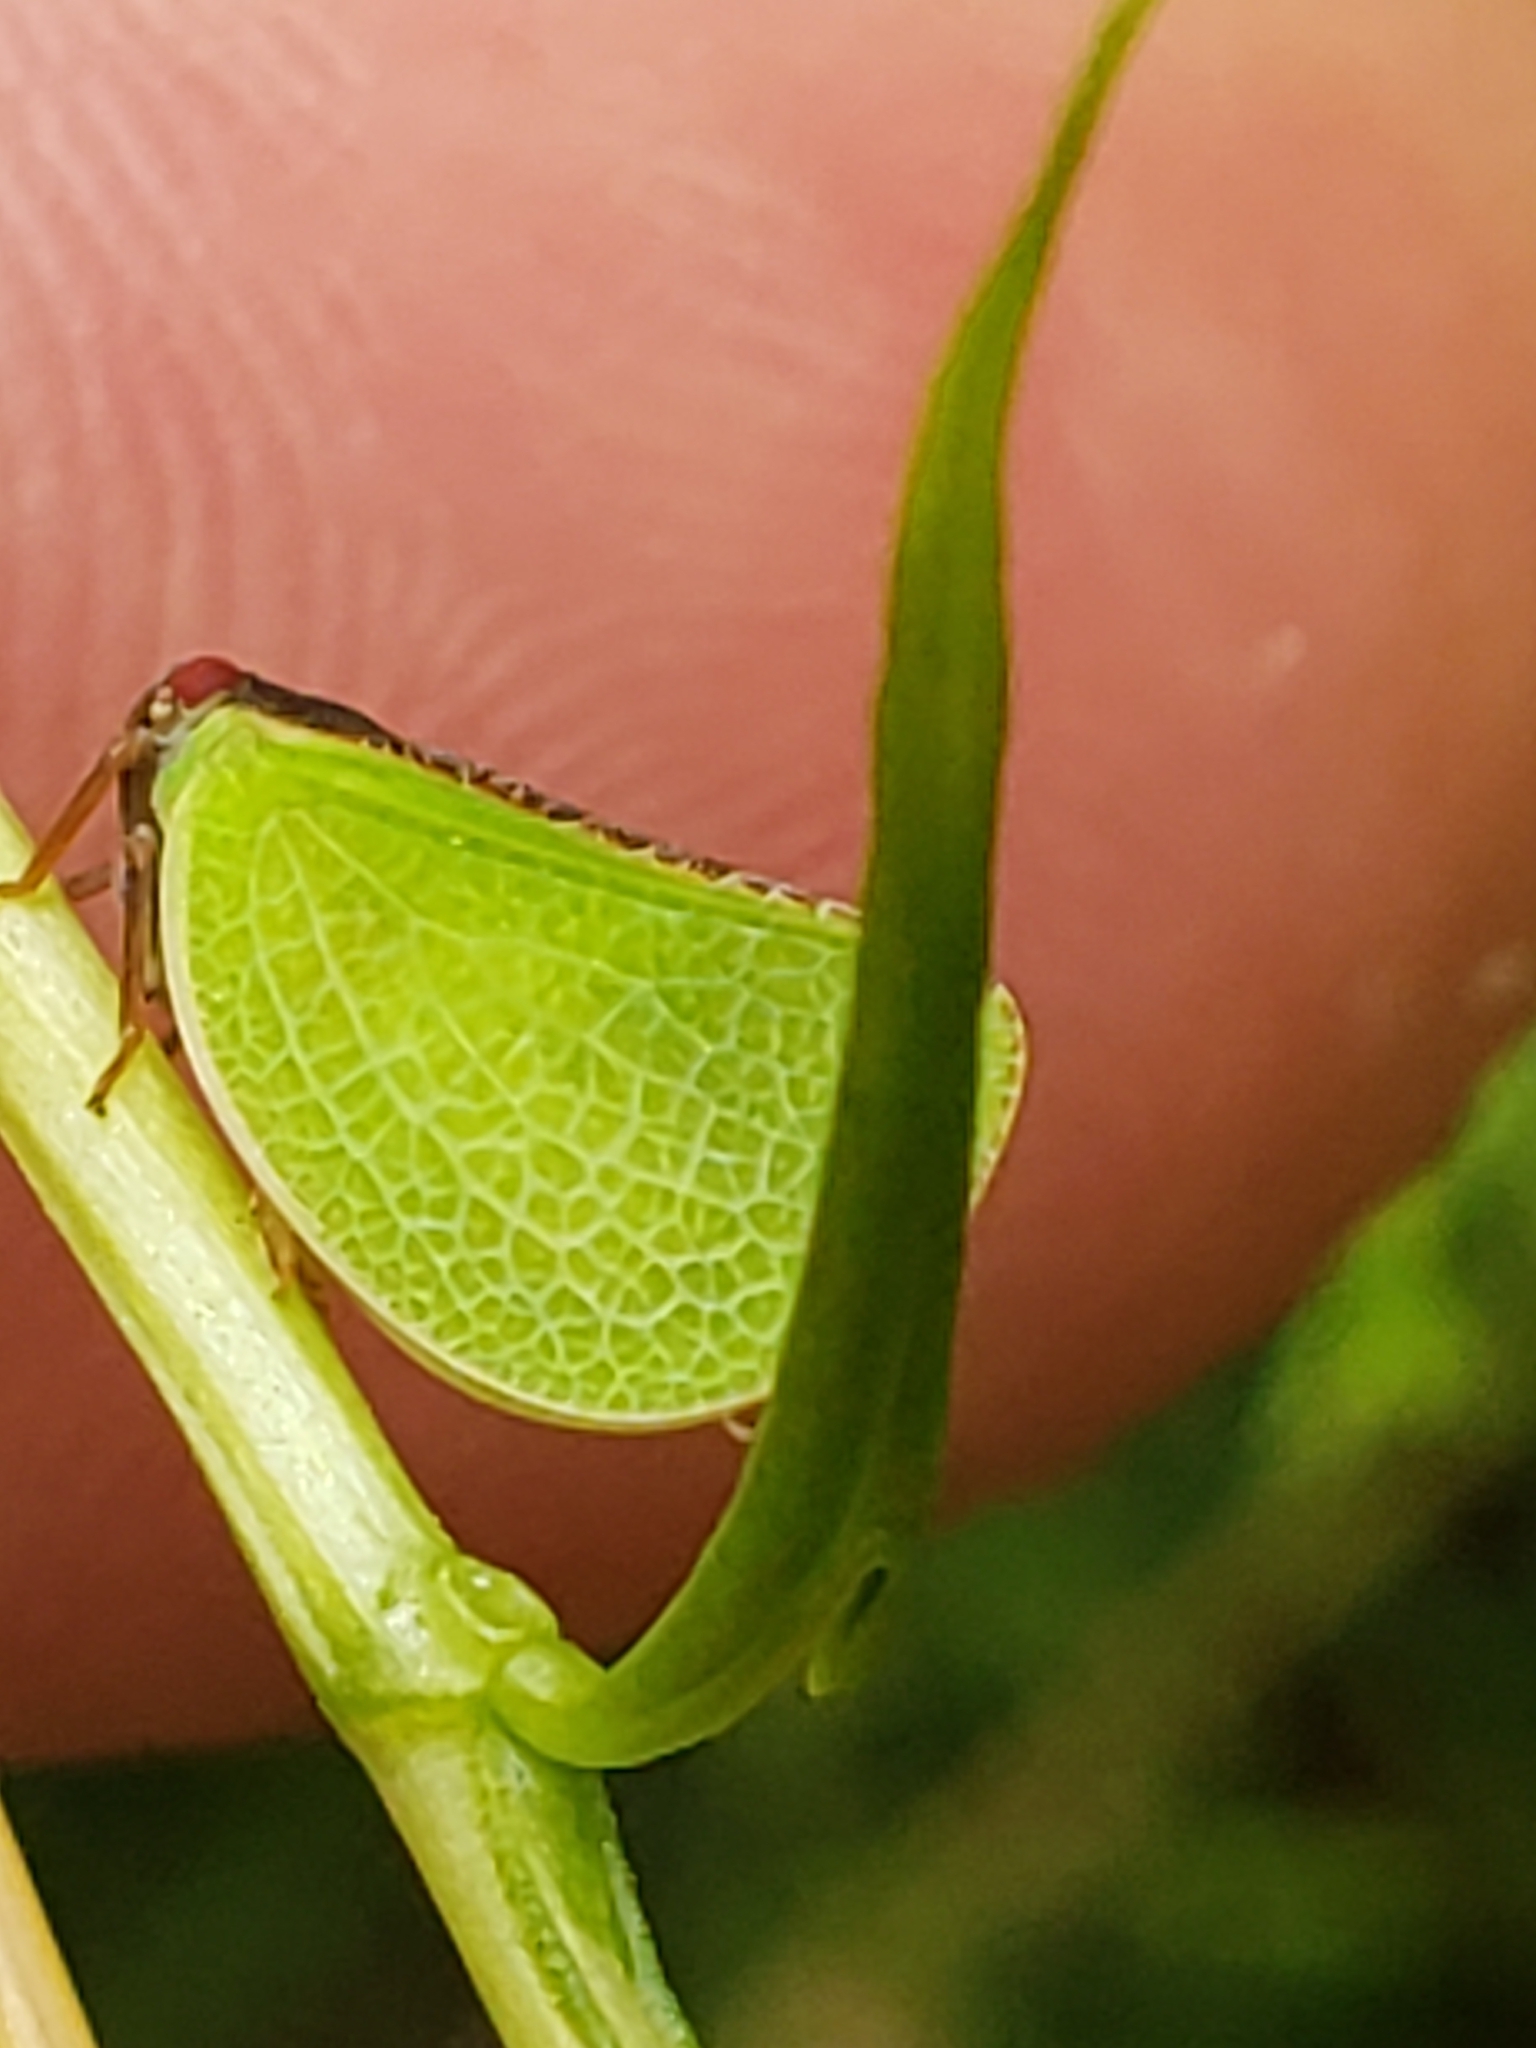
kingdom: Animalia
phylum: Arthropoda
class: Insecta
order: Hemiptera
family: Acanaloniidae
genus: Acanalonia
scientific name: Acanalonia bivittata
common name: Two-striped planthopper
